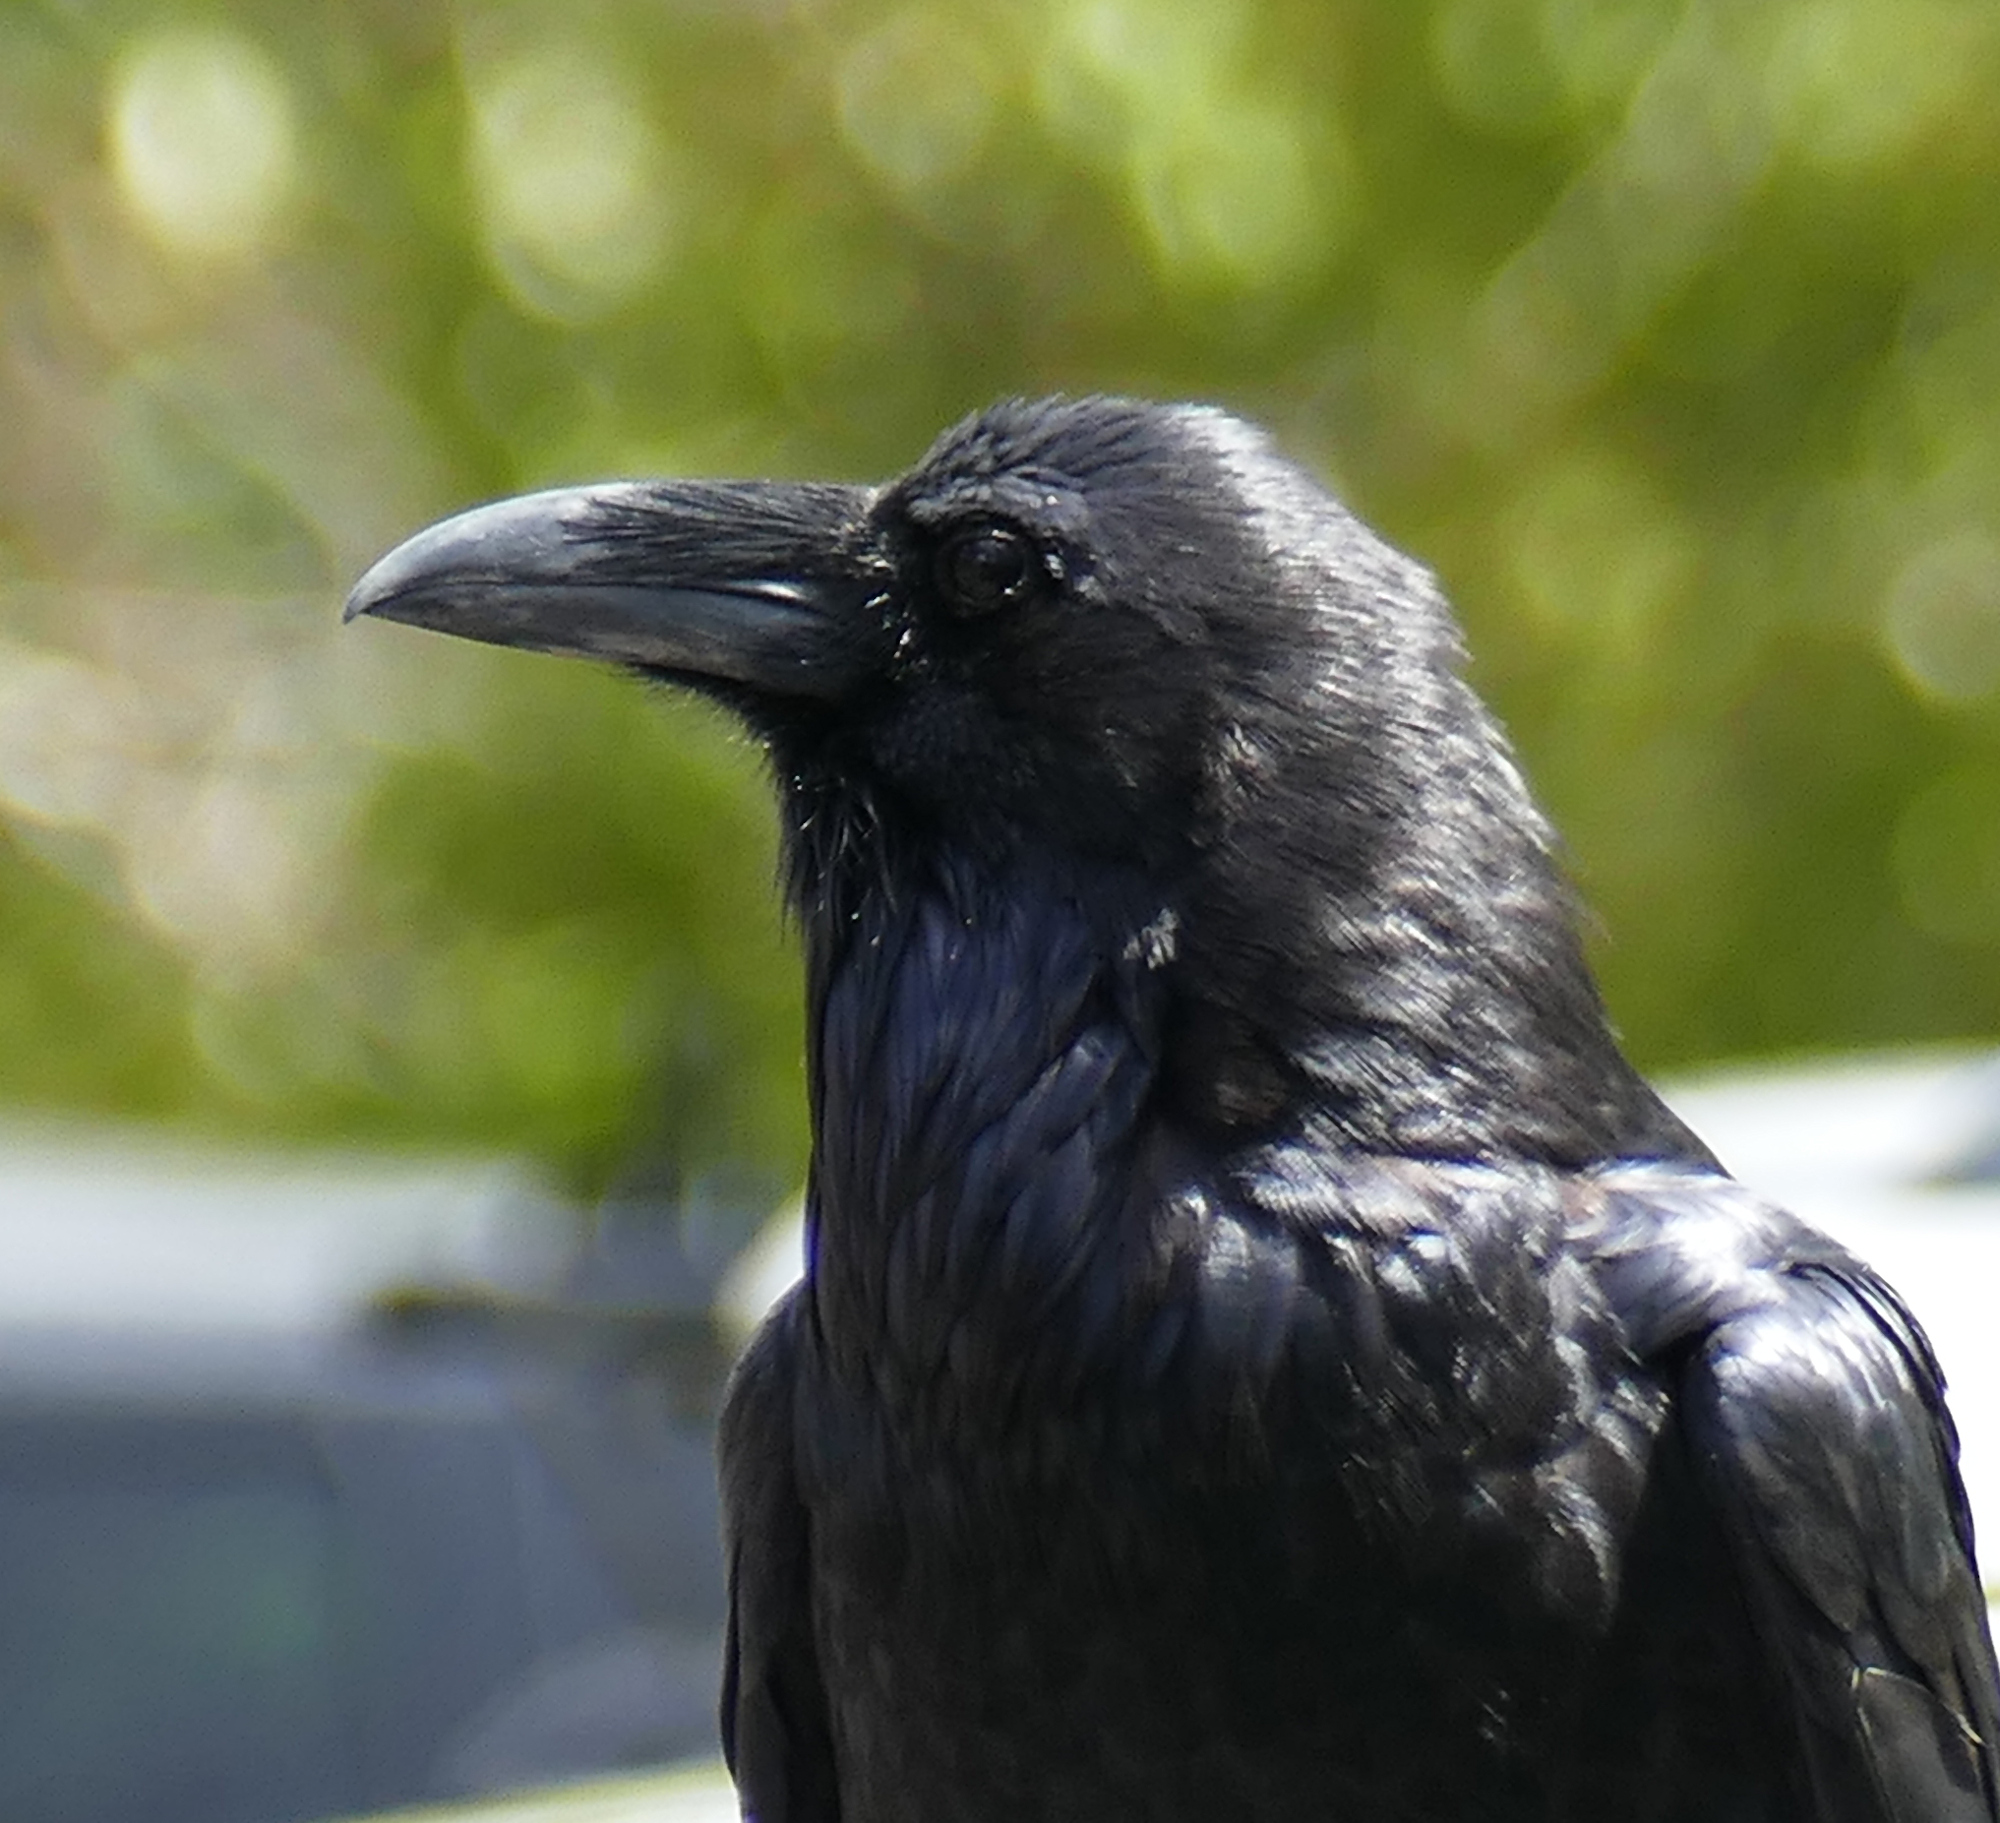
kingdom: Animalia
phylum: Chordata
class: Aves
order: Passeriformes
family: Corvidae
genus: Corvus
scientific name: Corvus corax
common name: Common raven
